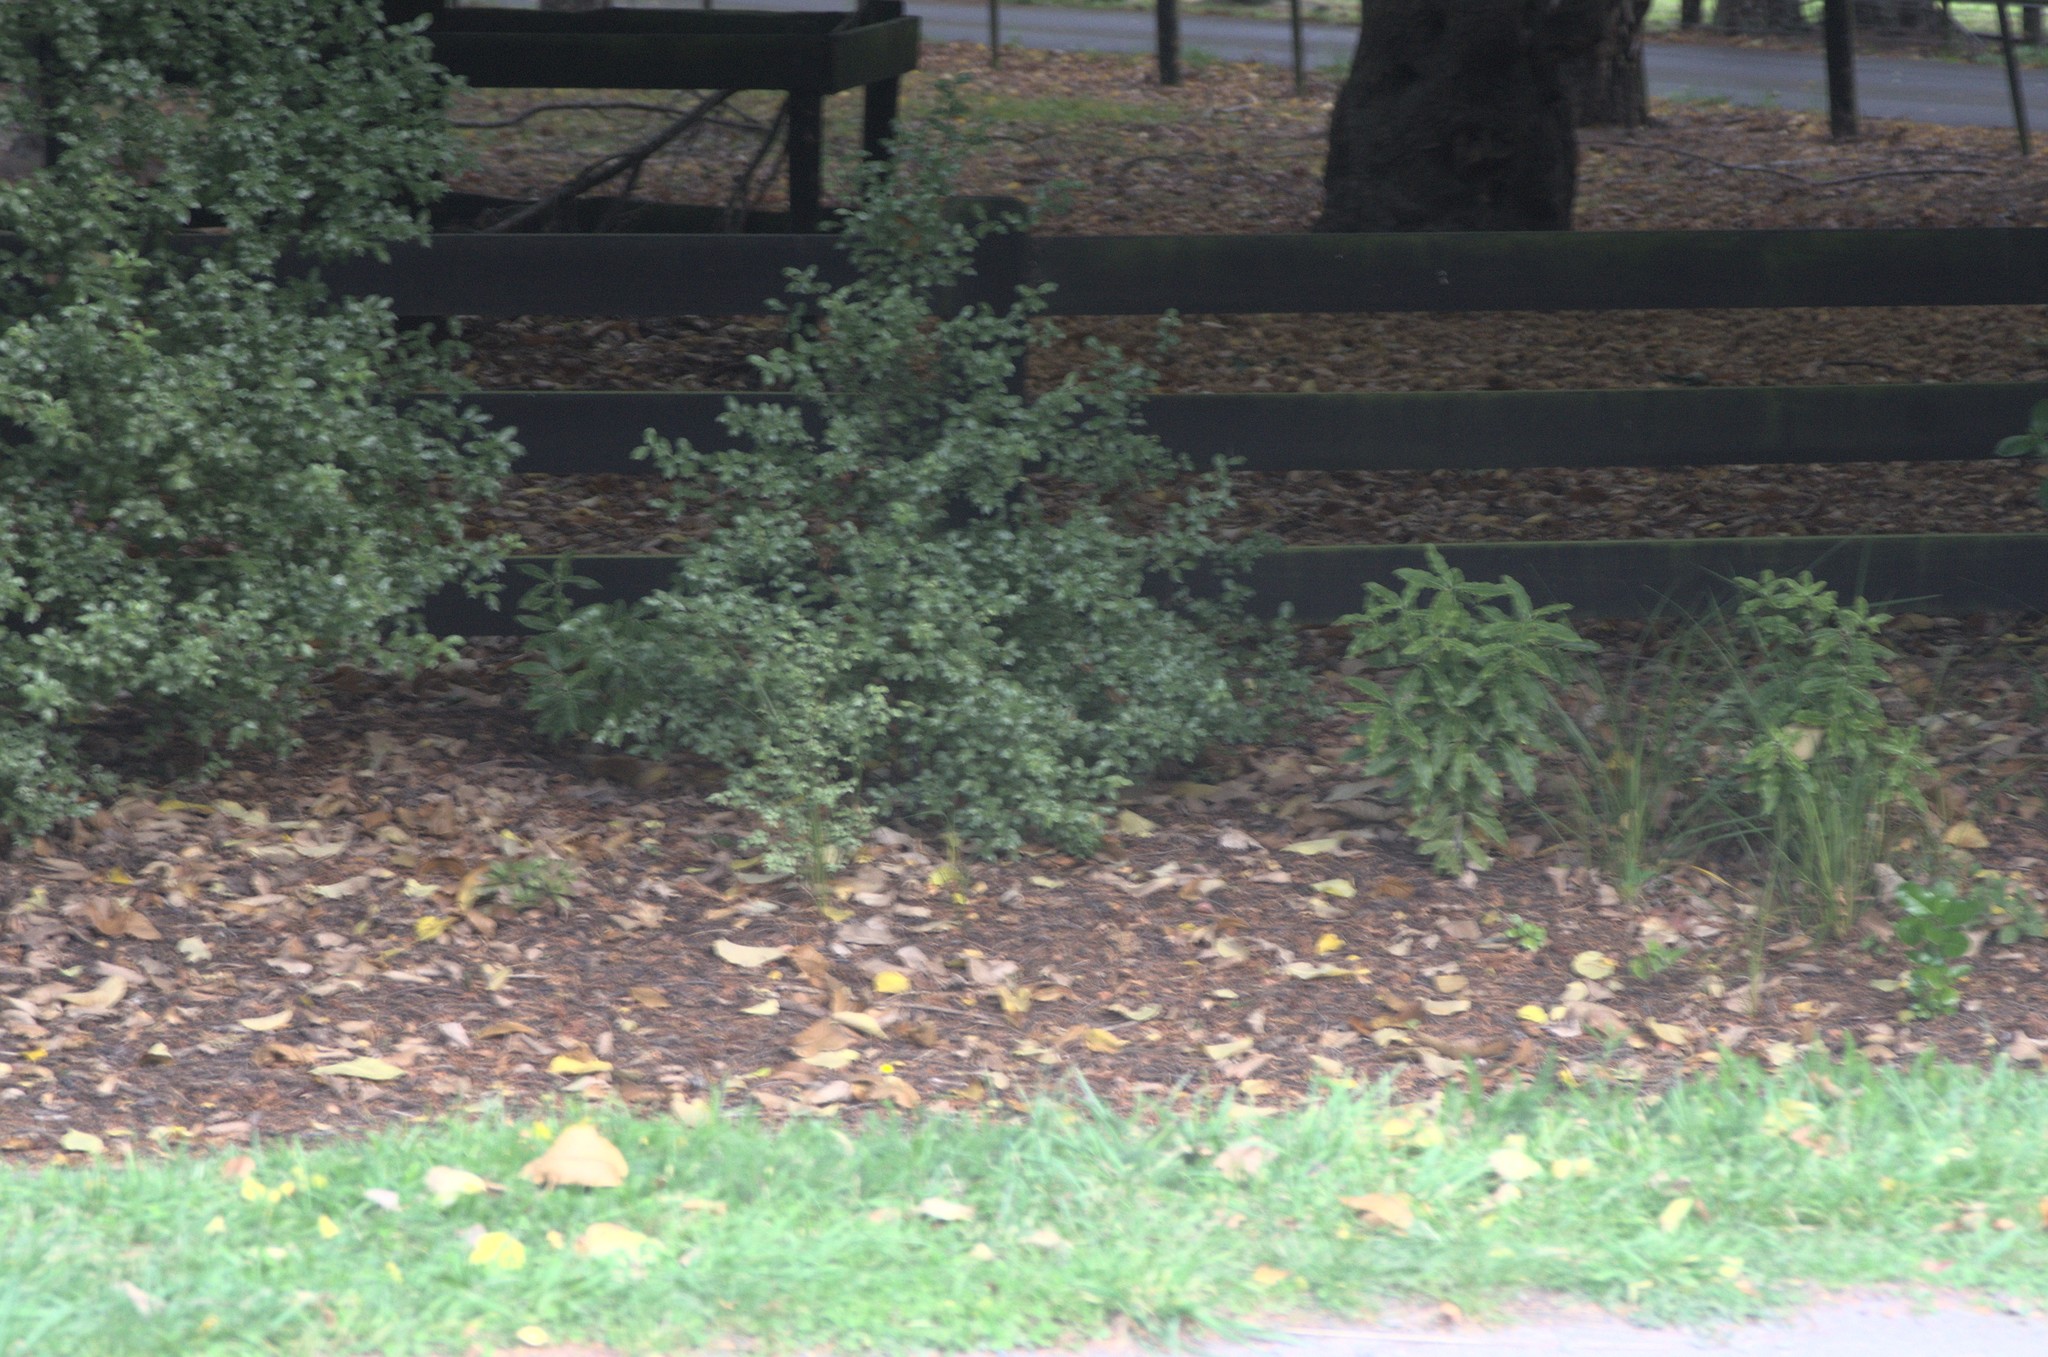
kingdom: Plantae
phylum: Tracheophyta
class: Magnoliopsida
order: Apiales
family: Pittosporaceae
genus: Pittosporum
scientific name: Pittosporum tenuifolium
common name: Kohuhu
